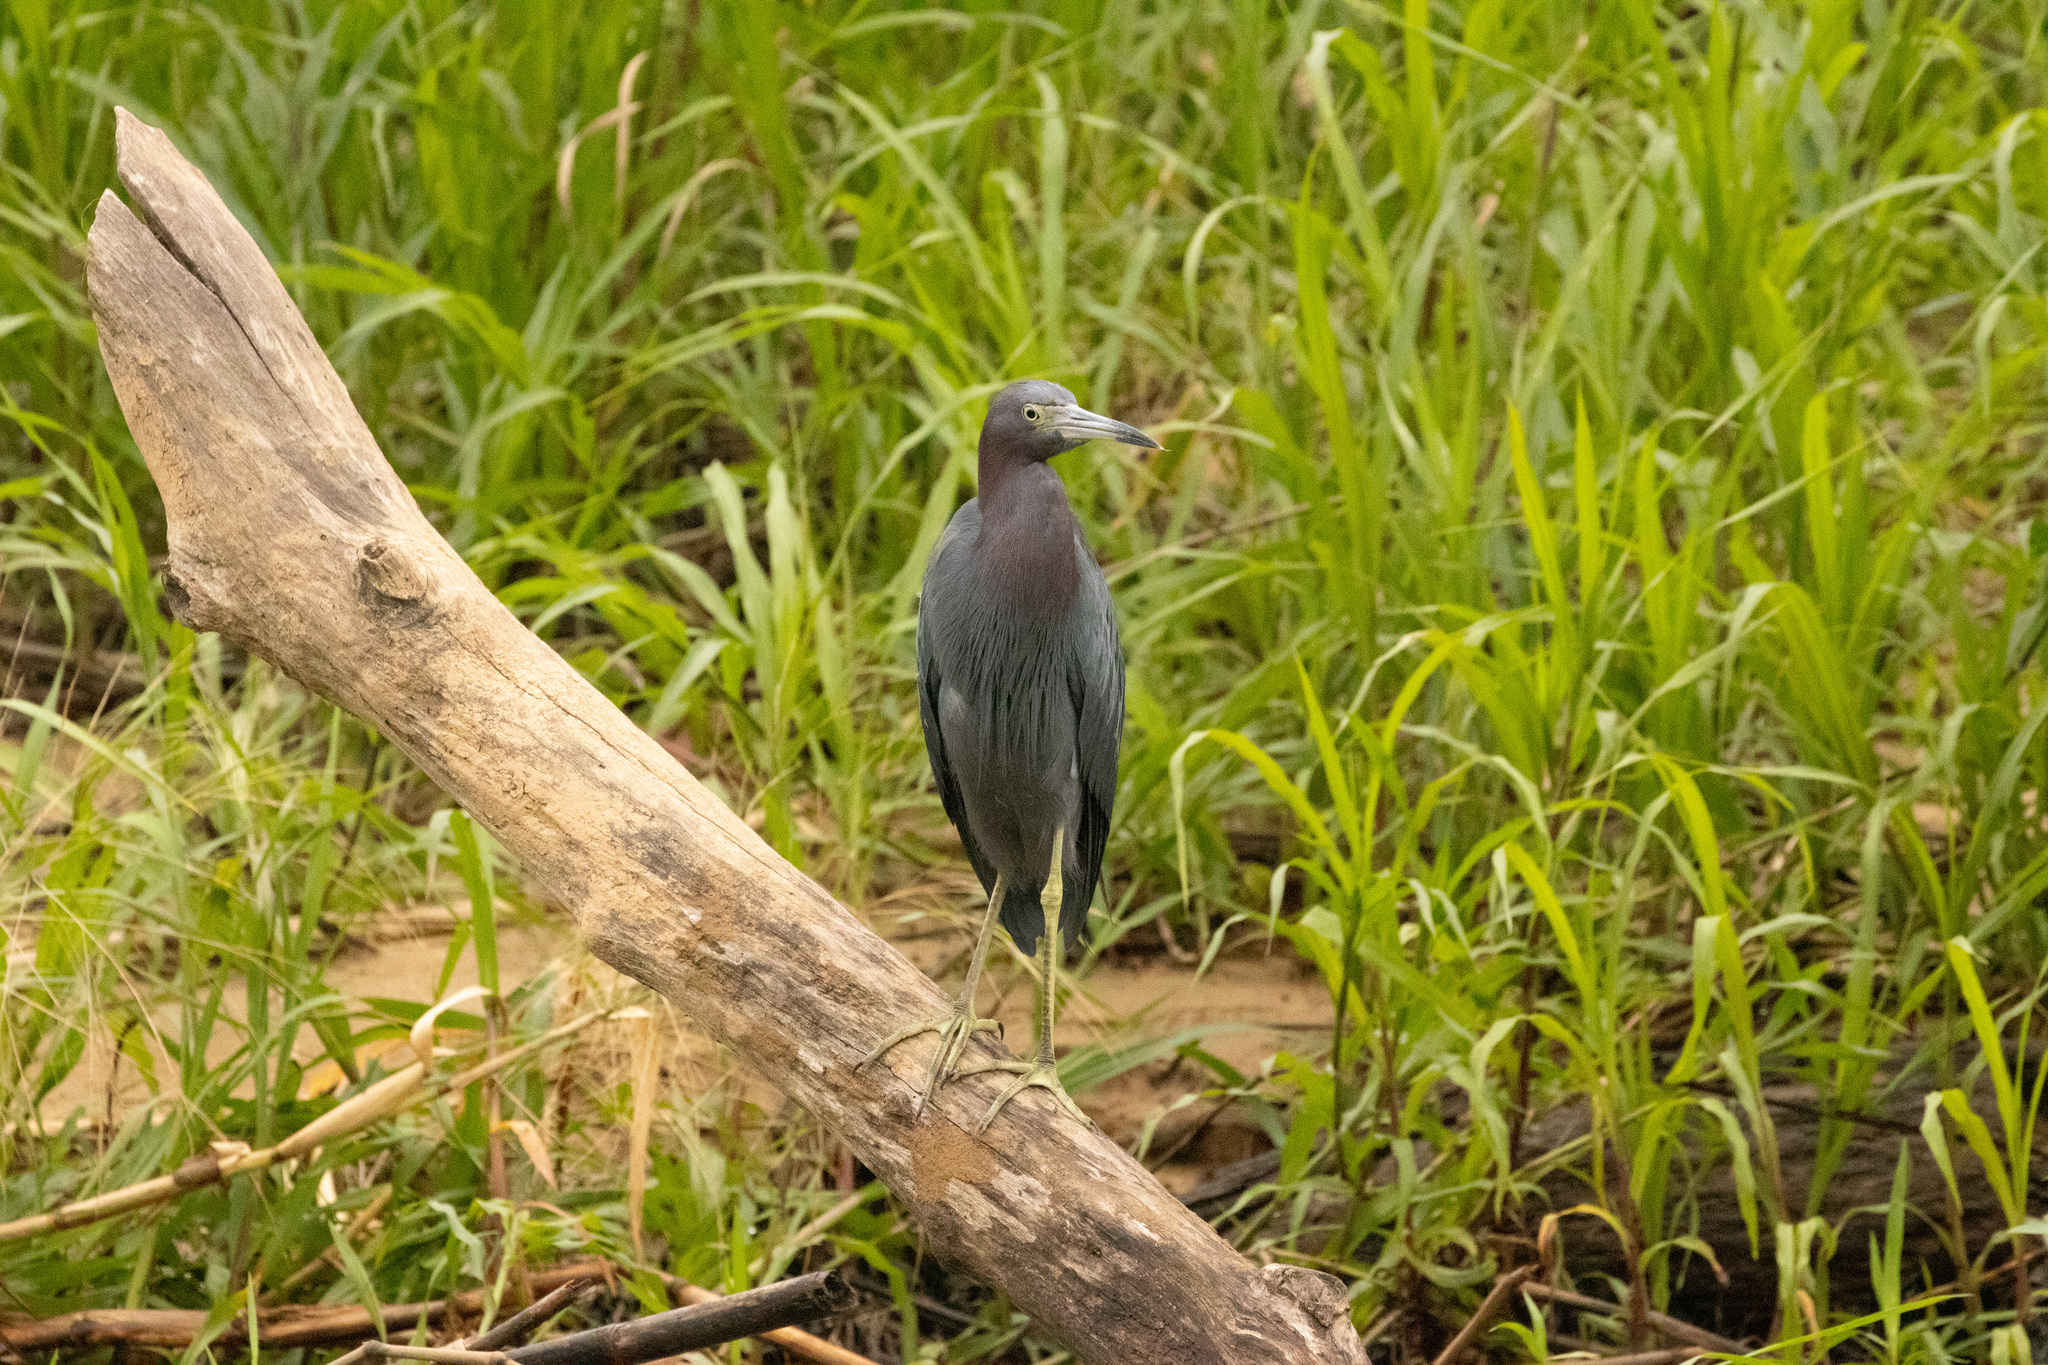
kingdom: Animalia
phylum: Chordata
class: Aves
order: Pelecaniformes
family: Ardeidae
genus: Egretta
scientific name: Egretta caerulea
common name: Little blue heron
